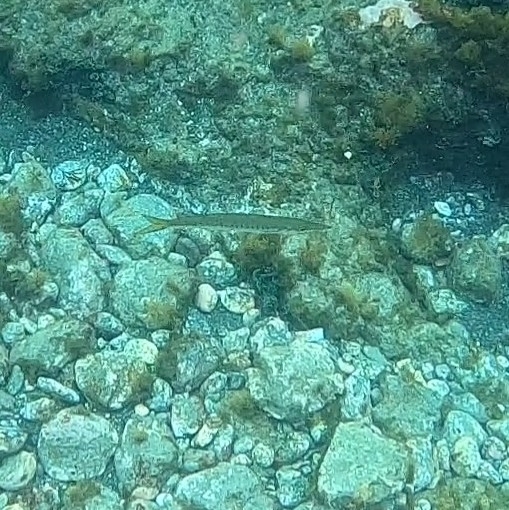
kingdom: Animalia
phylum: Chordata
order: Perciformes
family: Sphyraenidae
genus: Sphyraena
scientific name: Sphyraena viridensis
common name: Yellowmouth barracuda
